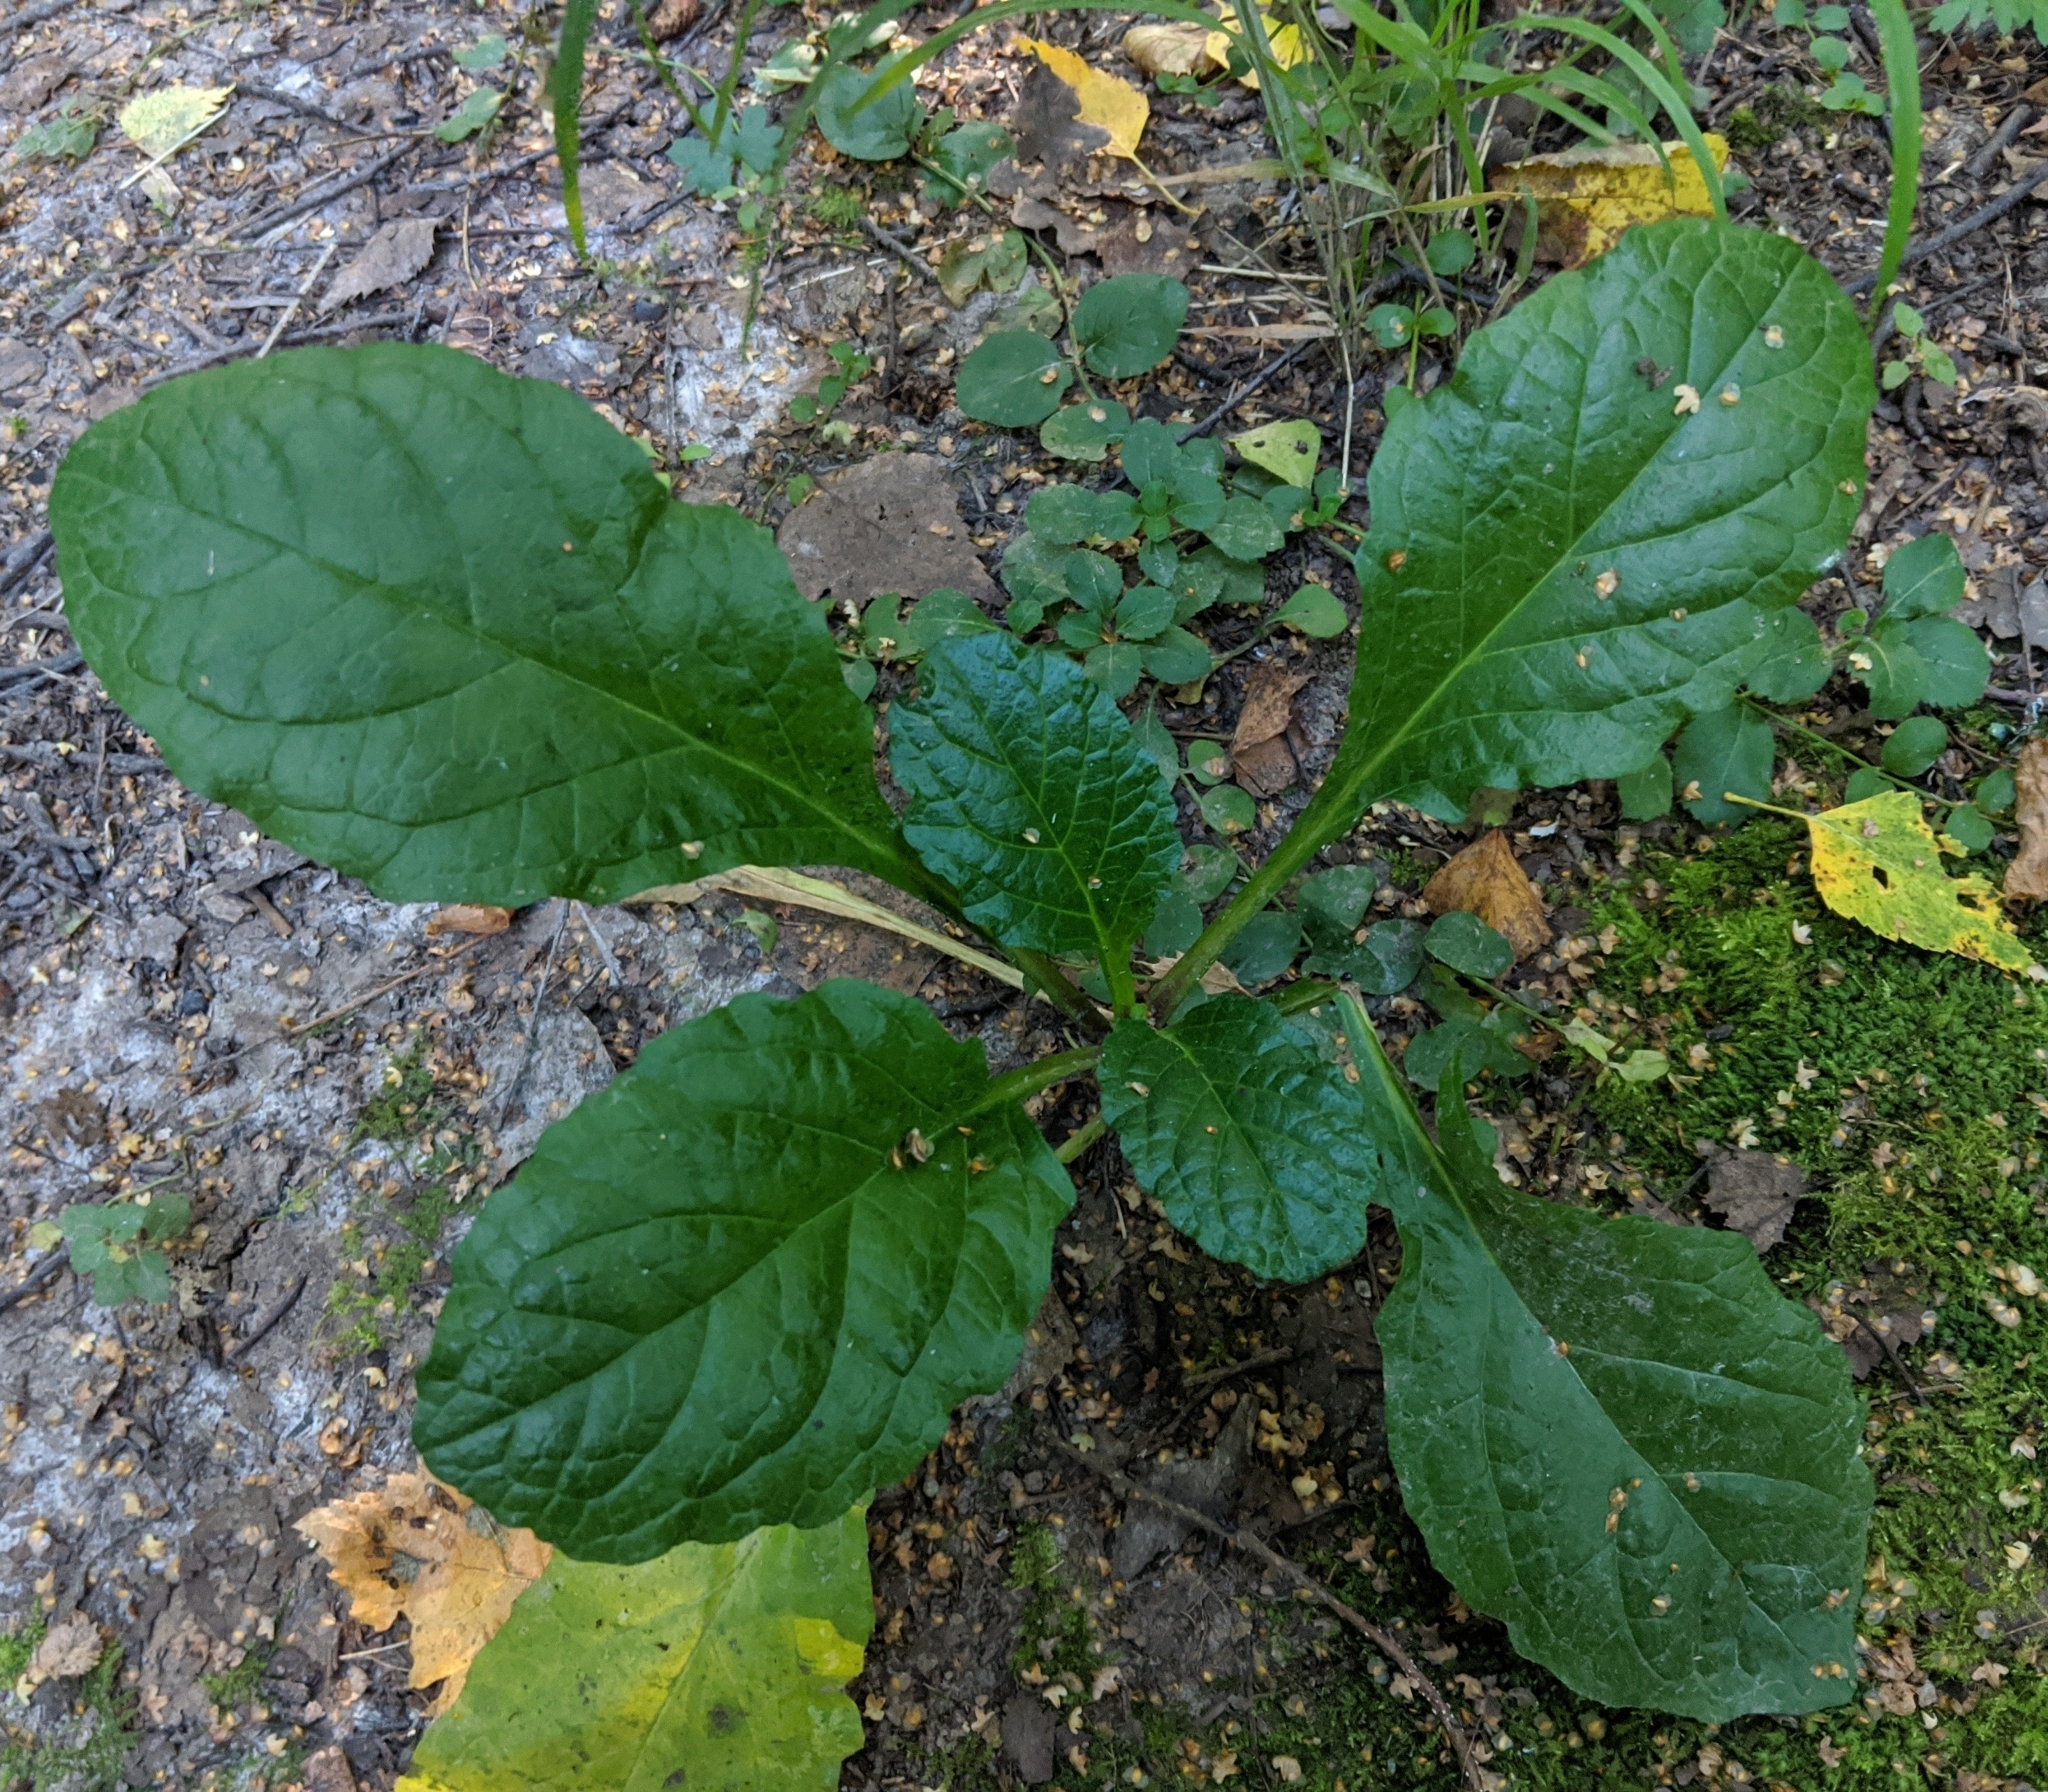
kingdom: Plantae
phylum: Tracheophyta
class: Magnoliopsida
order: Lamiales
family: Lamiaceae
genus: Ajuga
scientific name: Ajuga reptans
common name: Bugle
